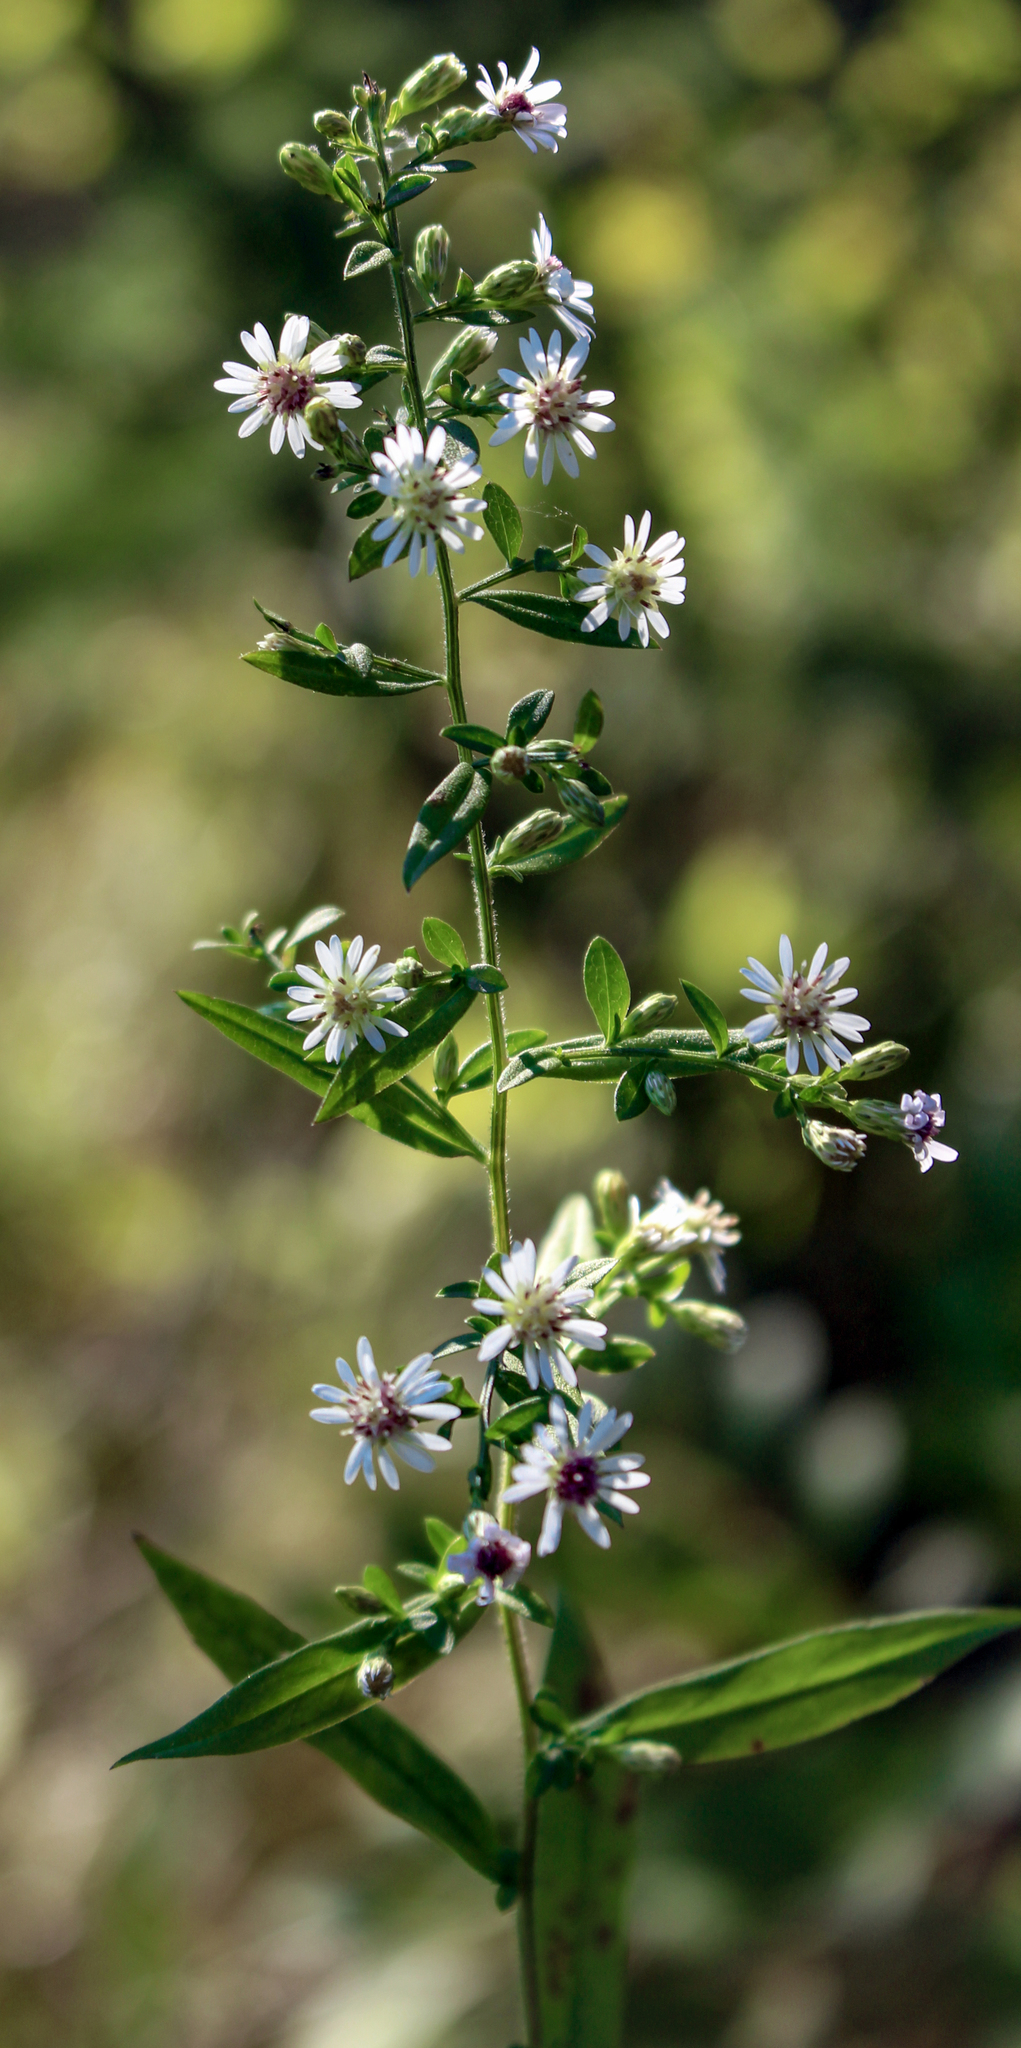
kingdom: Plantae
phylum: Tracheophyta
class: Magnoliopsida
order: Asterales
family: Asteraceae
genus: Symphyotrichum
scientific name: Symphyotrichum lateriflorum
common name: Calico aster
